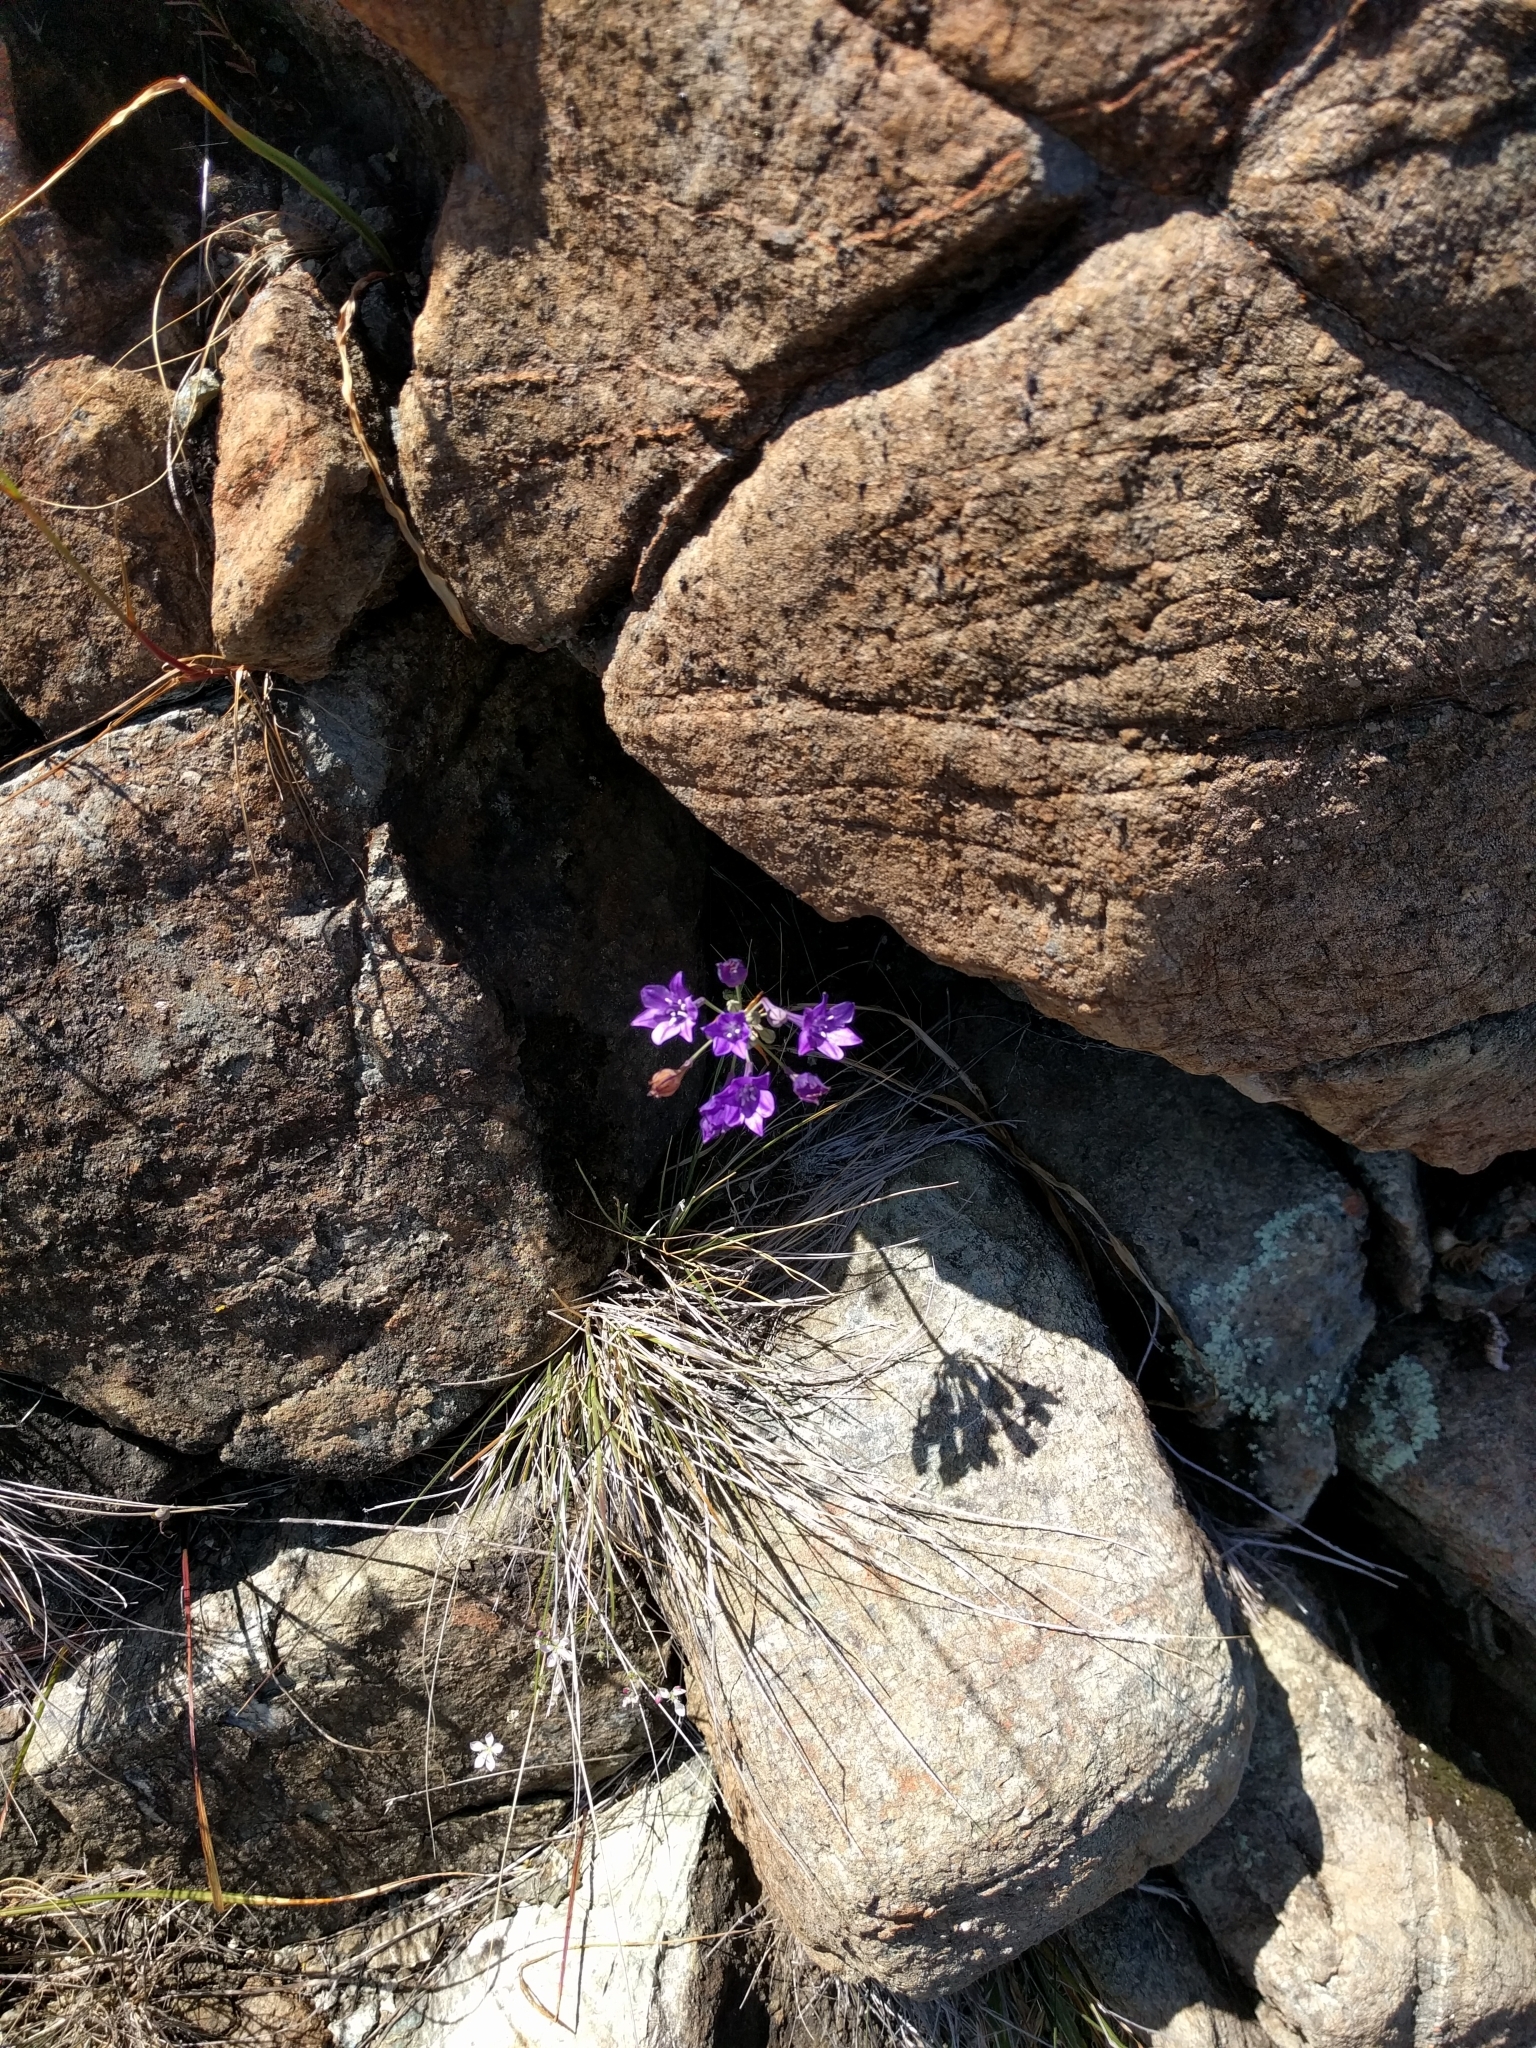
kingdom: Plantae
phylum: Tracheophyta
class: Liliopsida
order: Asparagales
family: Asparagaceae
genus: Triteleia
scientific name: Triteleia laxa
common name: Triplet-lily
